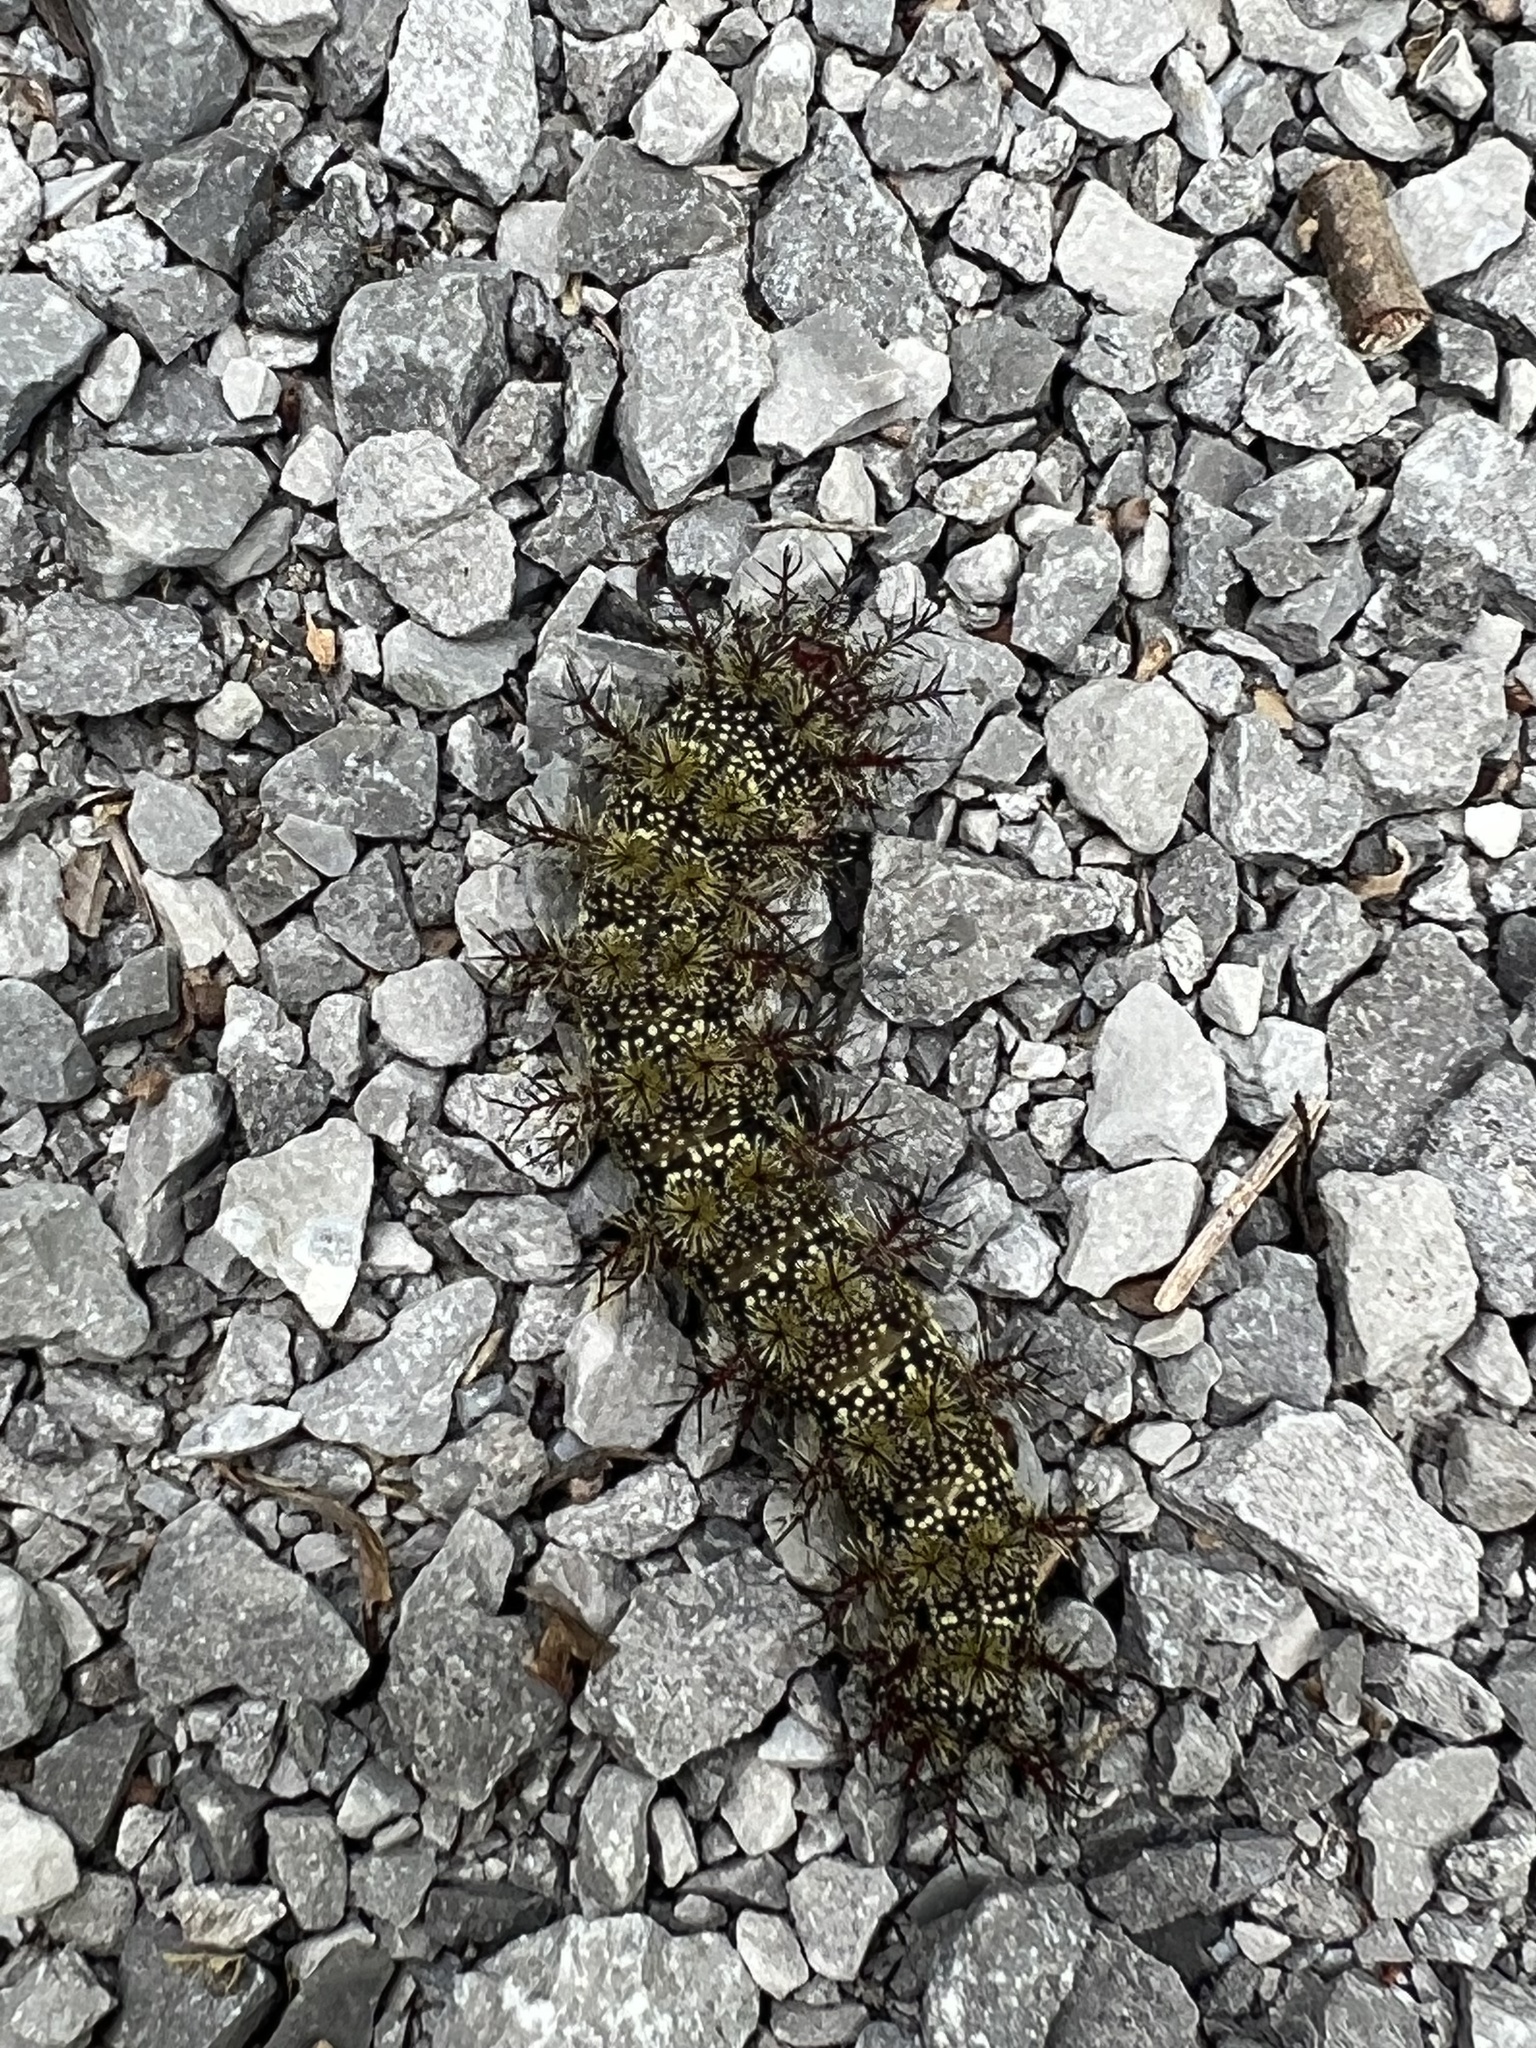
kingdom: Animalia
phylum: Arthropoda
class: Insecta
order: Lepidoptera
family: Saturniidae
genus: Hemileuca
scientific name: Hemileuca maia
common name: Eastern buckmoth
